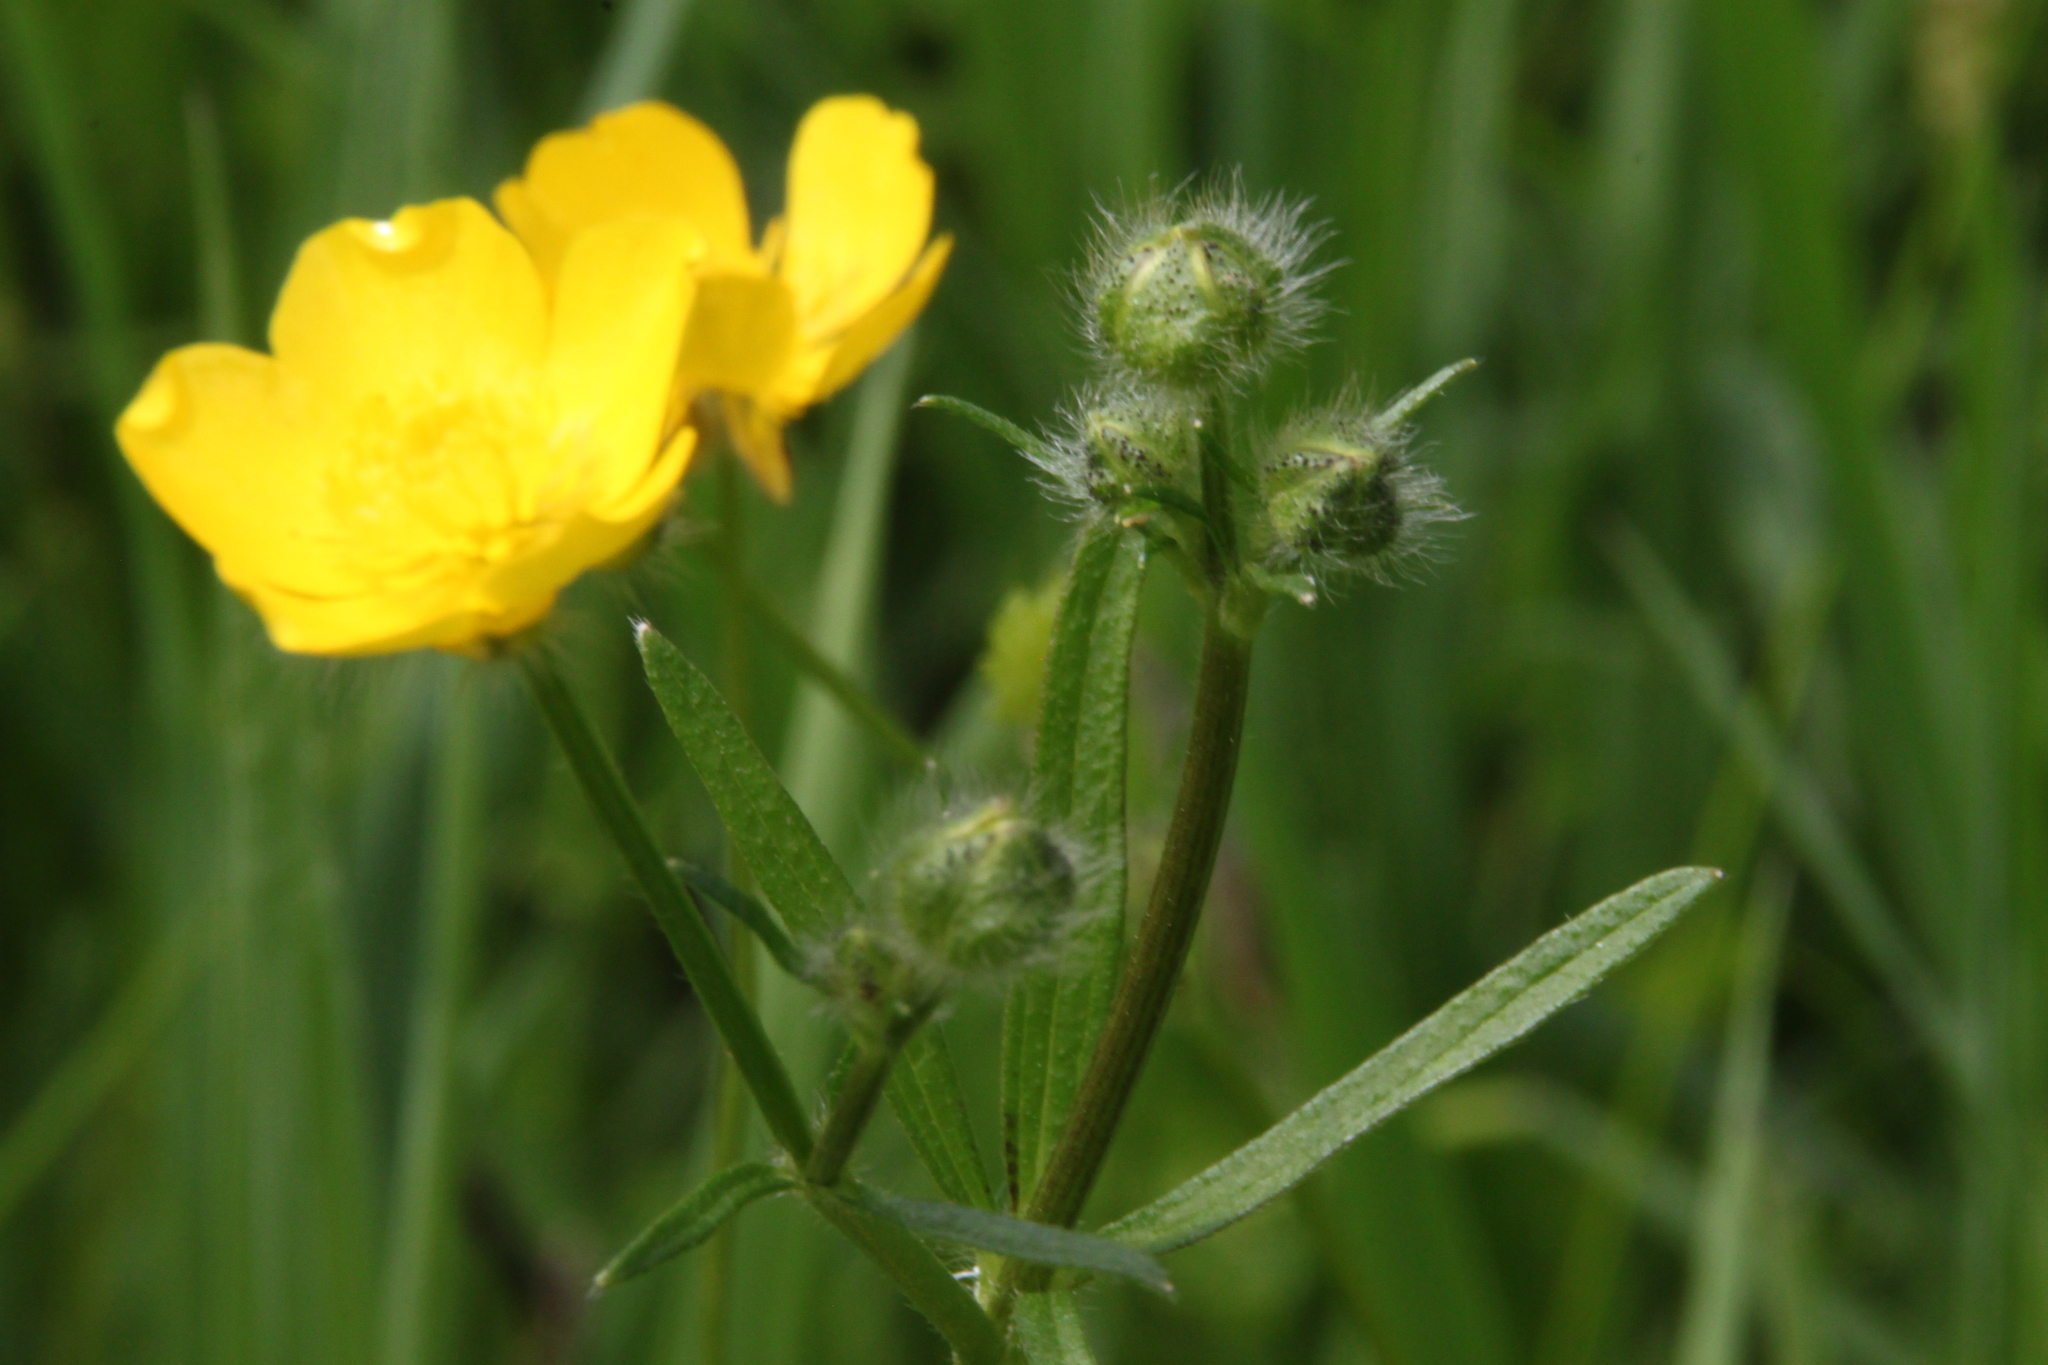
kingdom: Plantae
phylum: Tracheophyta
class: Magnoliopsida
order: Ranunculales
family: Ranunculaceae
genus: Ranunculus
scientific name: Ranunculus polyanthemos
